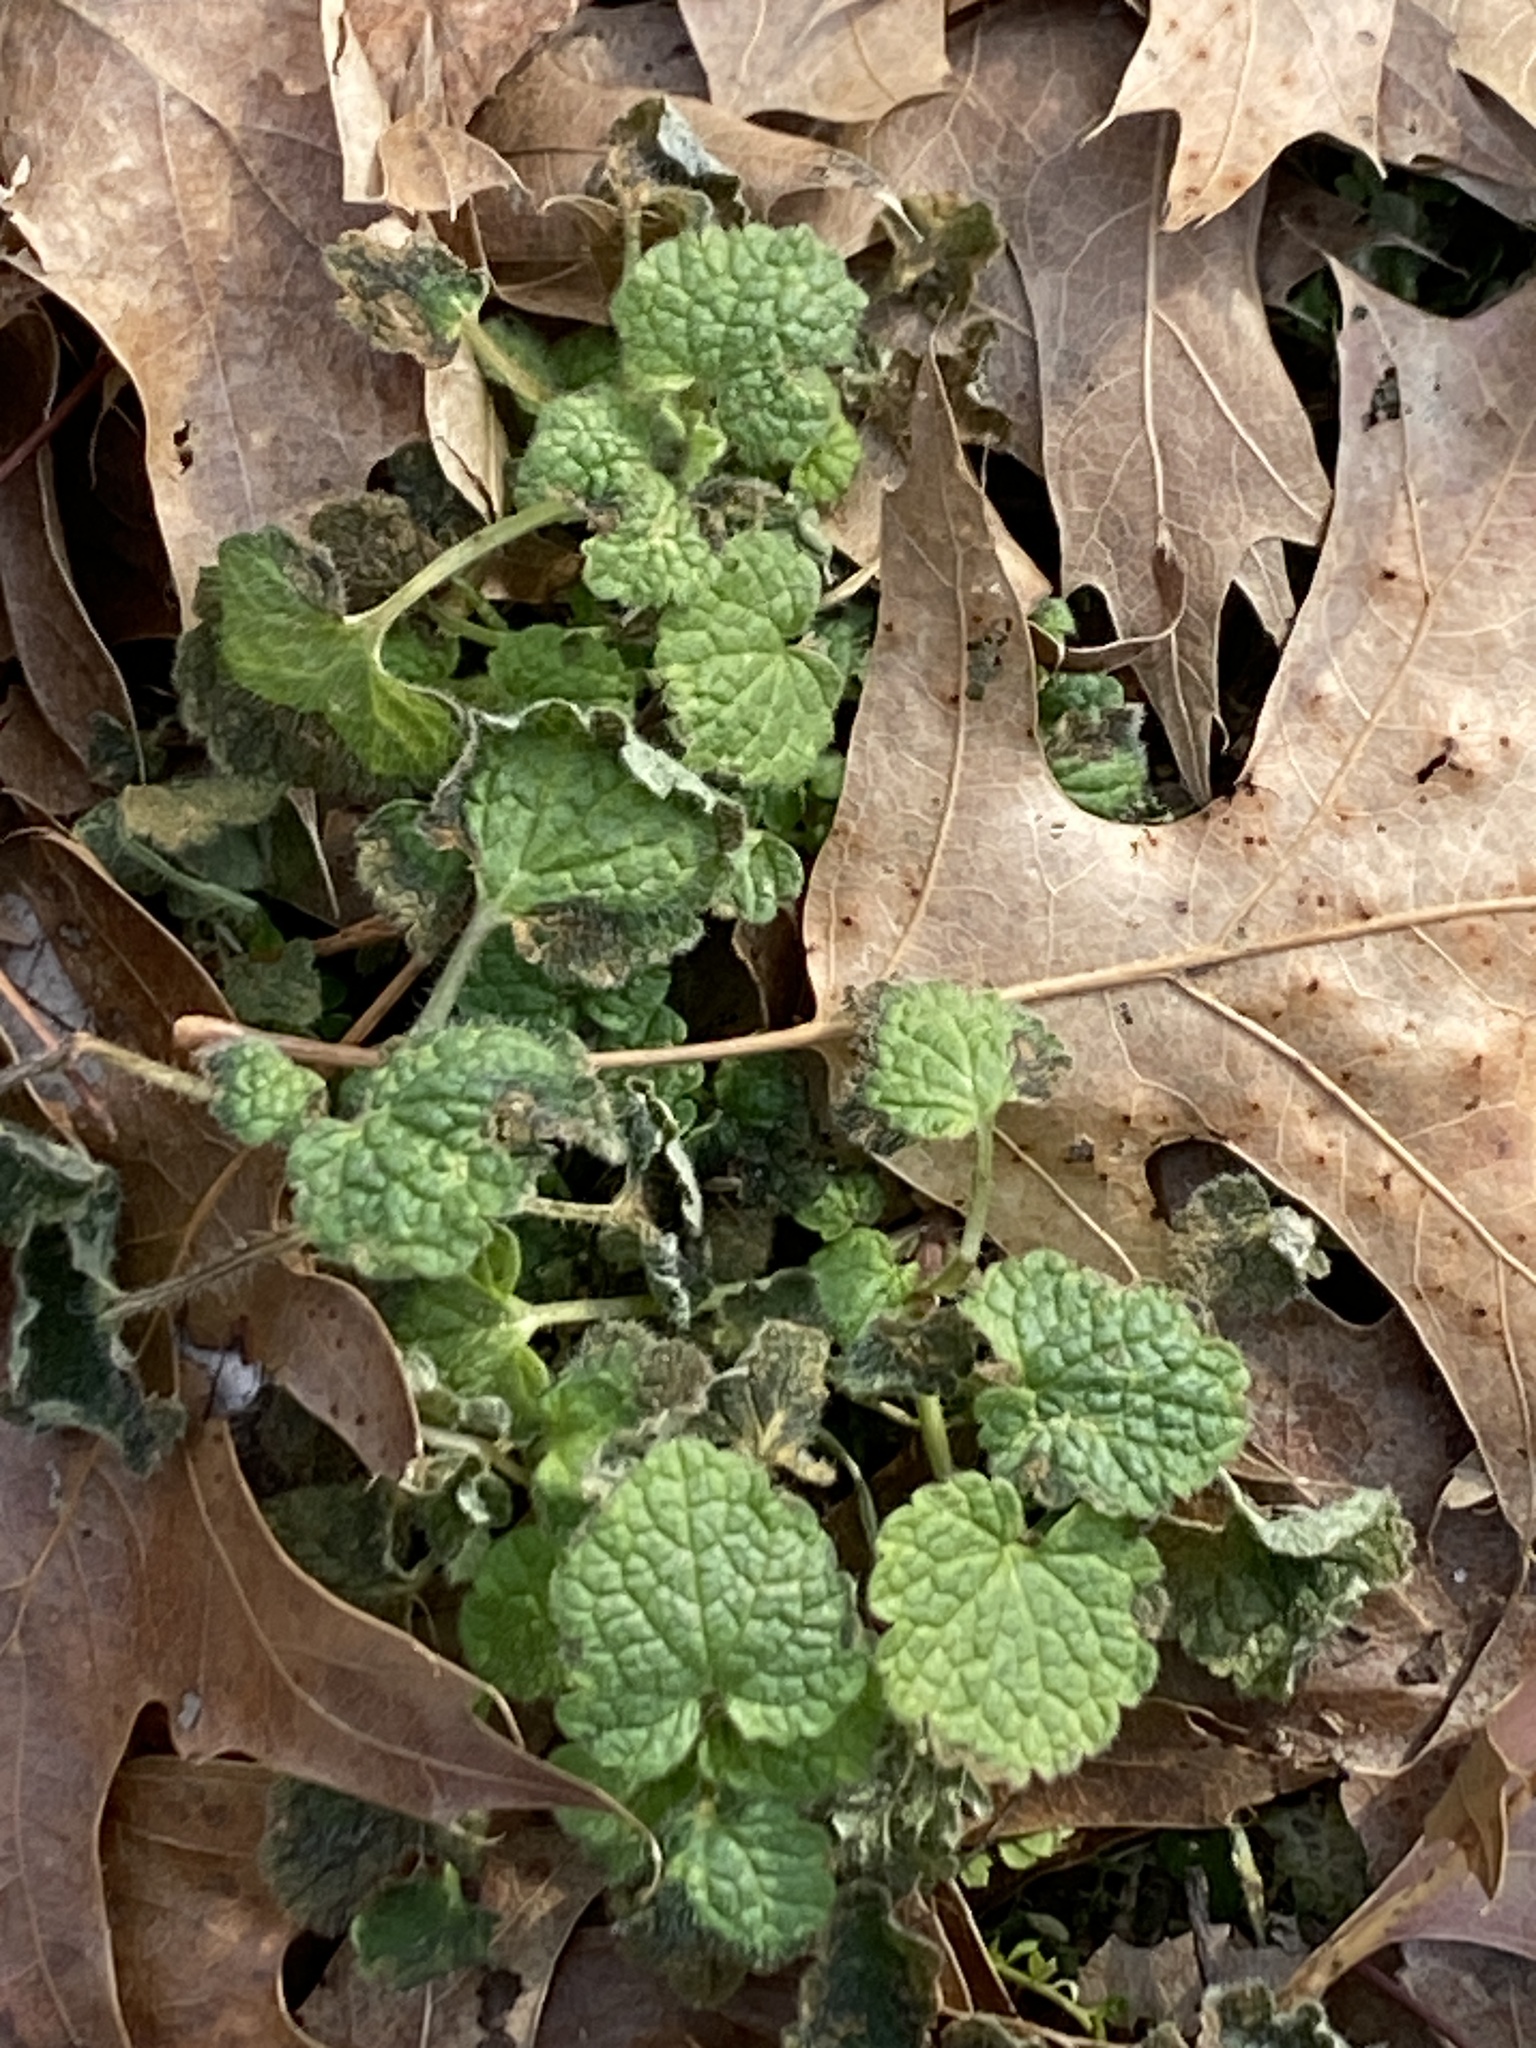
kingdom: Plantae
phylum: Tracheophyta
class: Magnoliopsida
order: Lamiales
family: Lamiaceae
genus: Lamium
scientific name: Lamium purpureum
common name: Red dead-nettle
